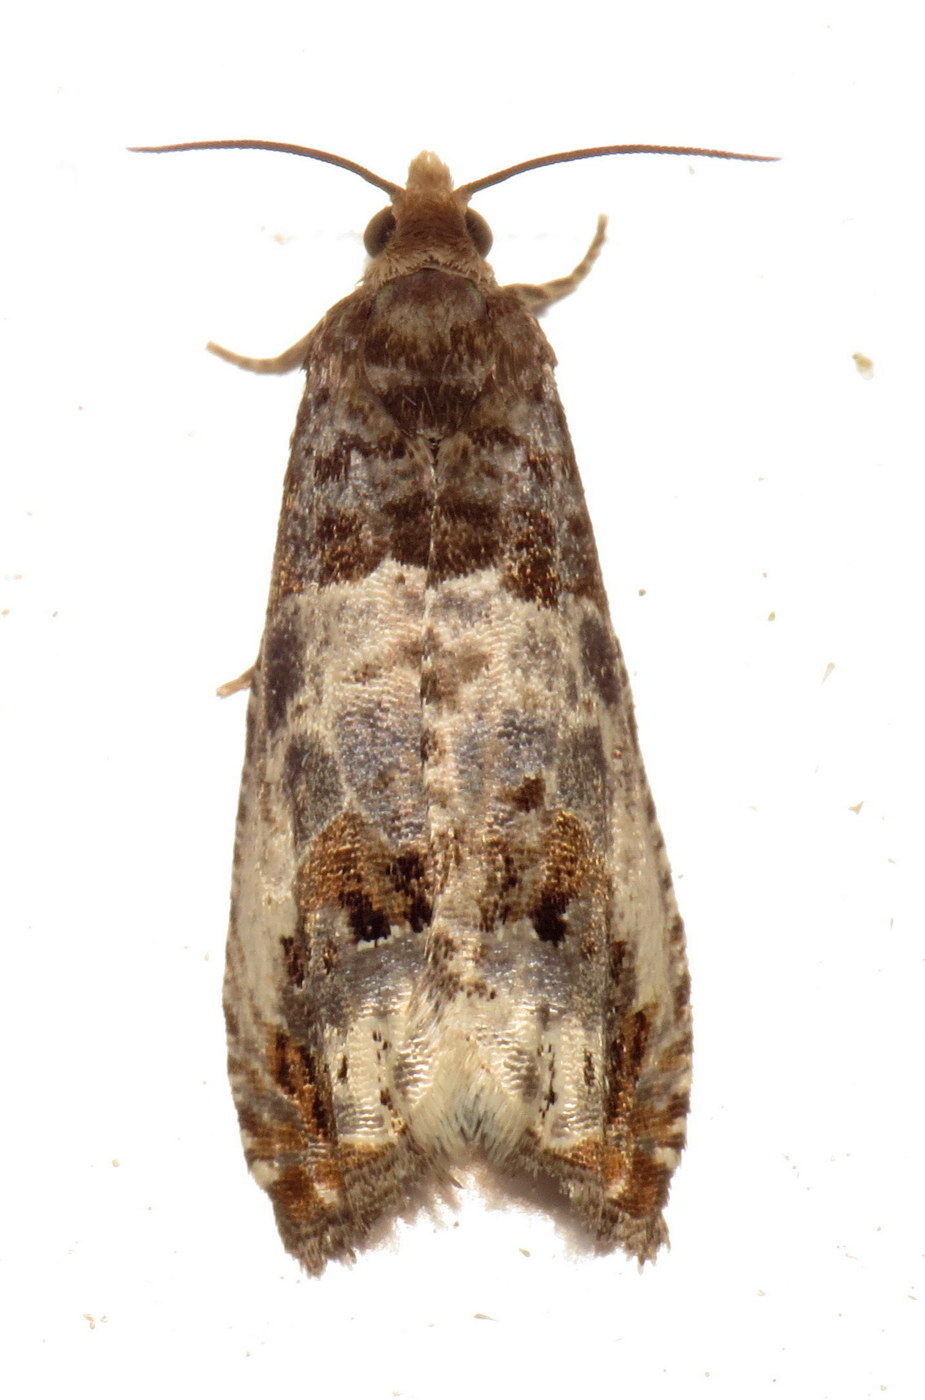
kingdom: Animalia
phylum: Arthropoda
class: Insecta
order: Lepidoptera
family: Tortricidae
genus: Notocelia
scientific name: Notocelia rosaecolana
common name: Common rose bell
